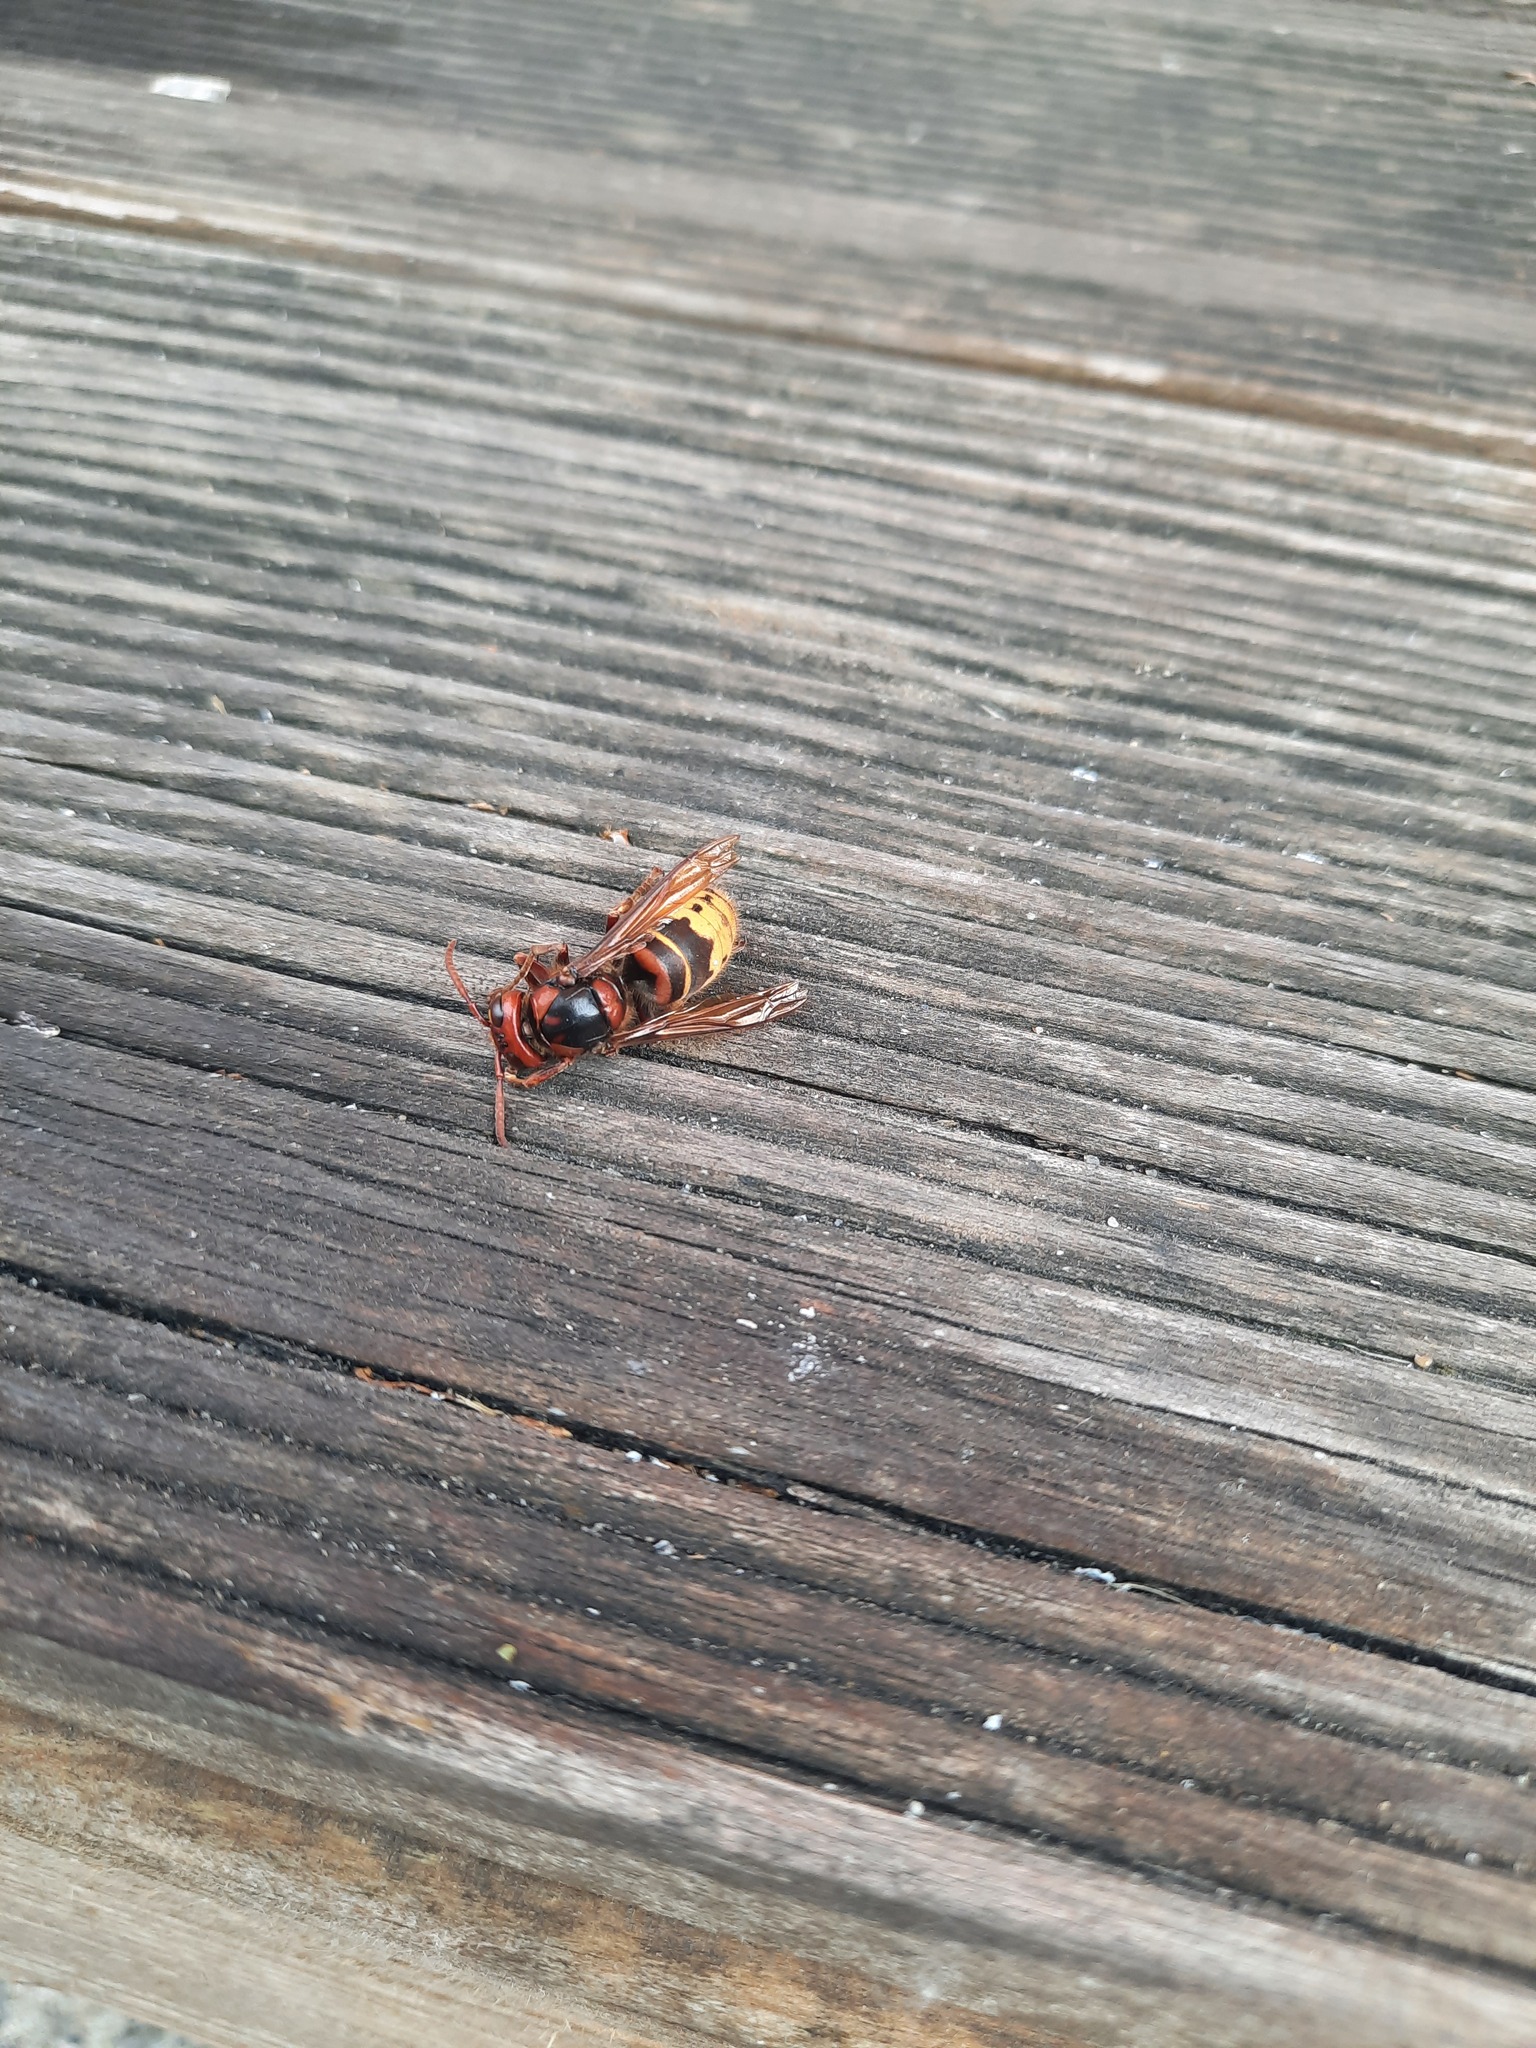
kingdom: Animalia
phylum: Arthropoda
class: Insecta
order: Hymenoptera
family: Vespidae
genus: Vespa
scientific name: Vespa crabro
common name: Hornet
